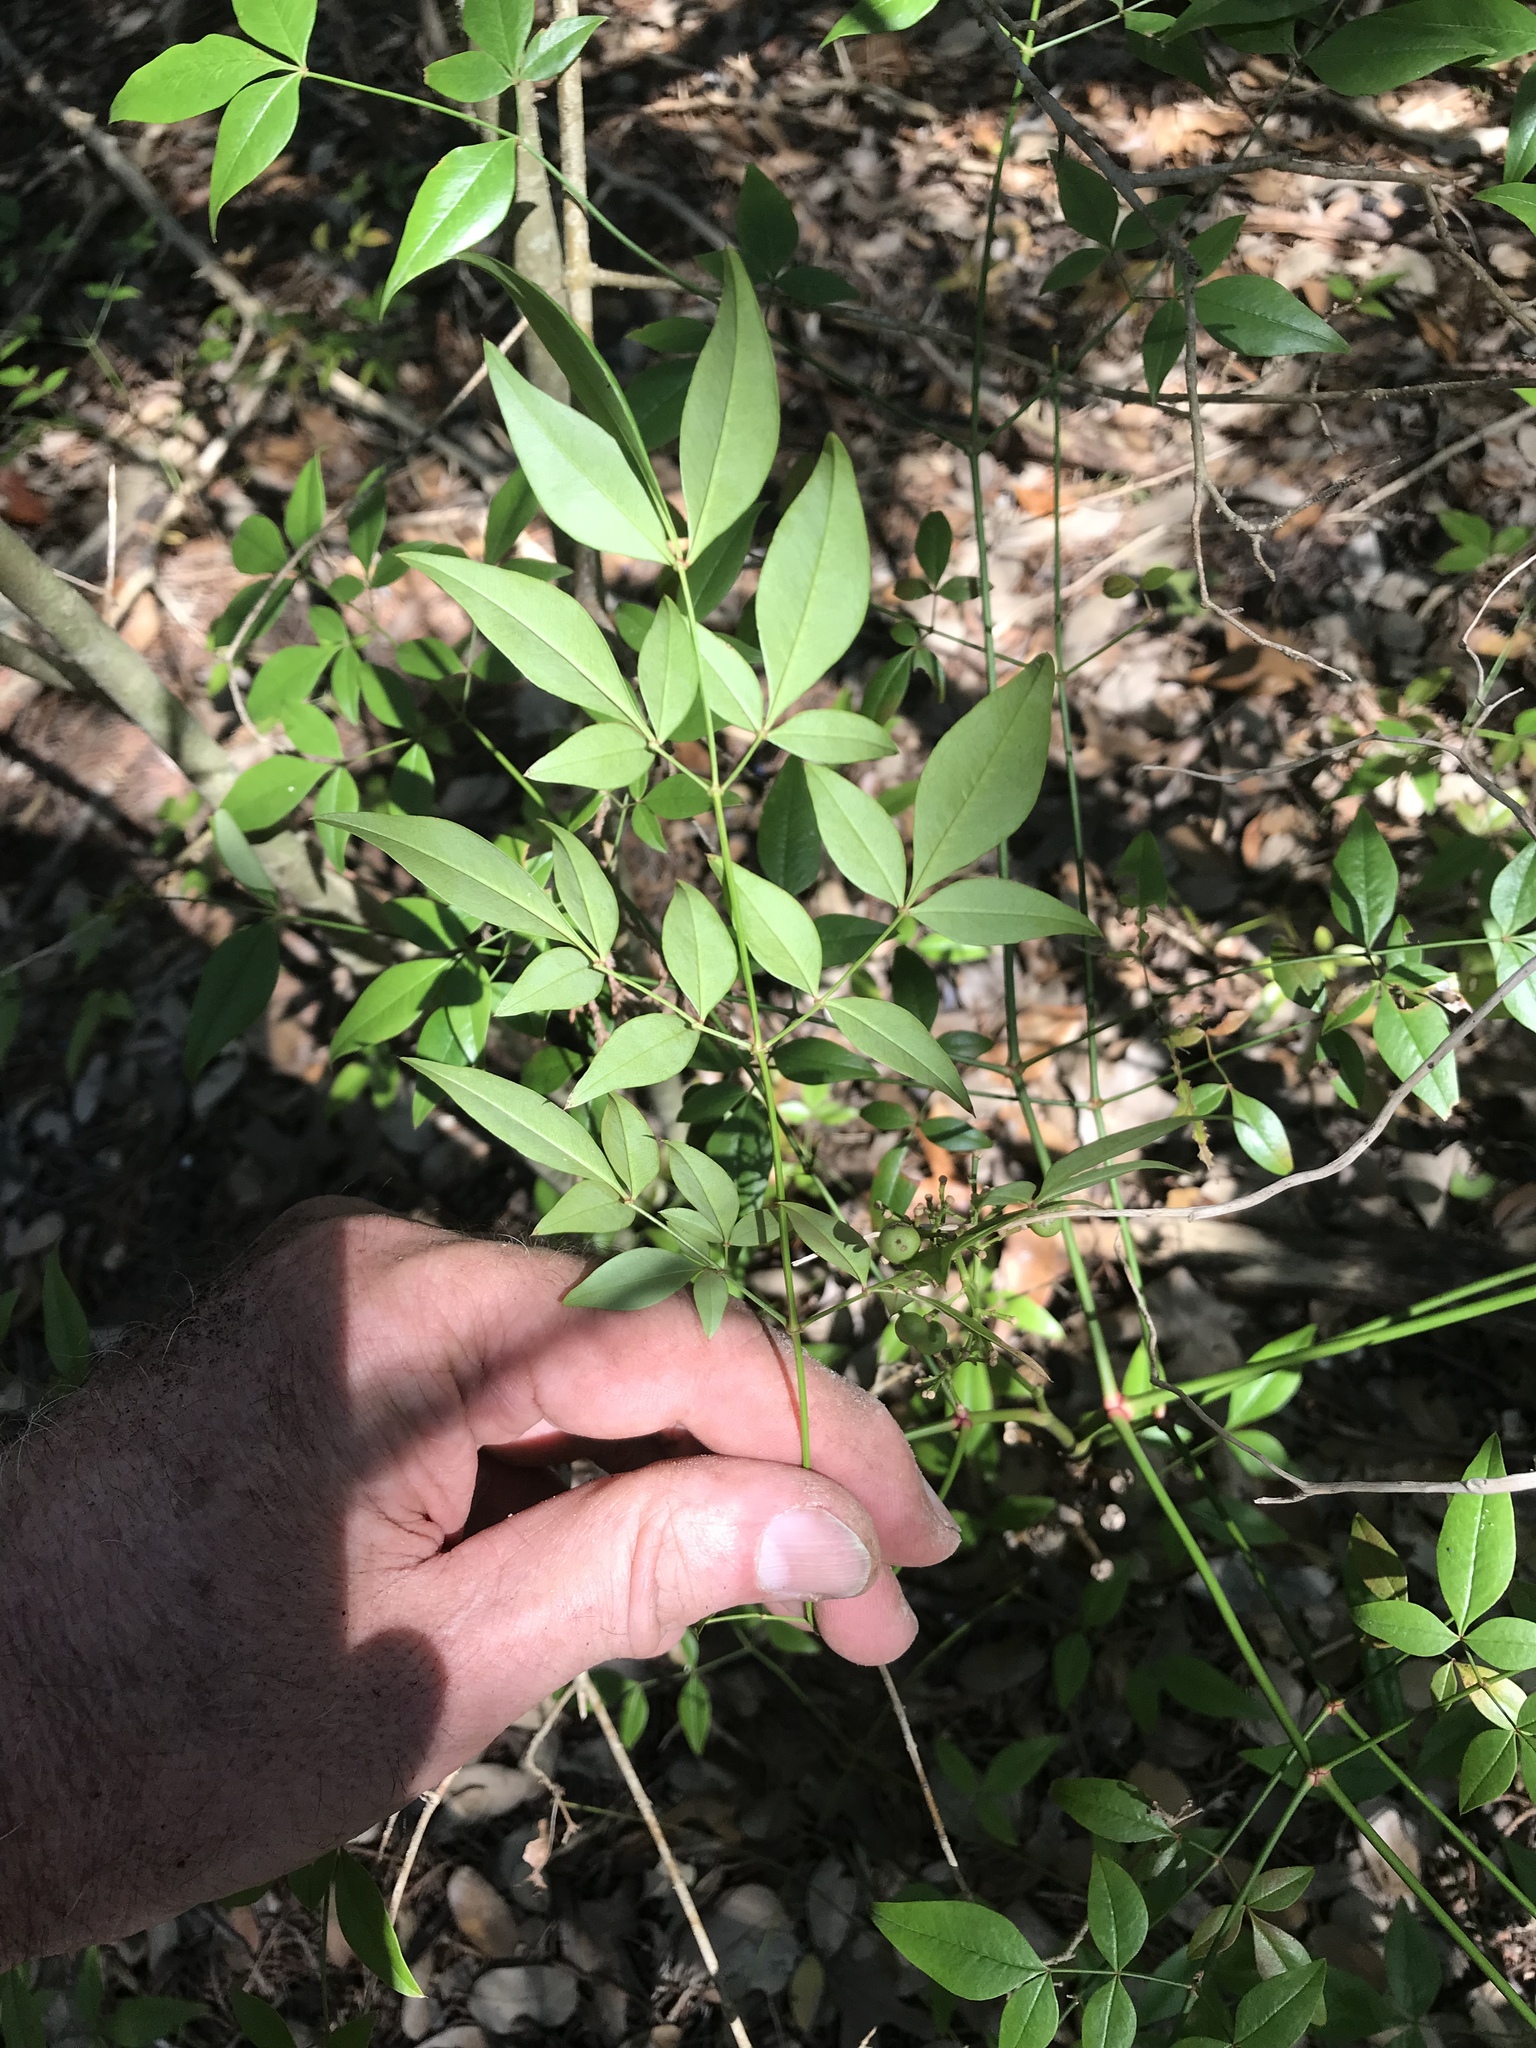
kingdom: Plantae
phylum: Tracheophyta
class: Magnoliopsida
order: Ranunculales
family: Berberidaceae
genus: Nandina
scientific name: Nandina domestica
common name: Sacred bamboo
